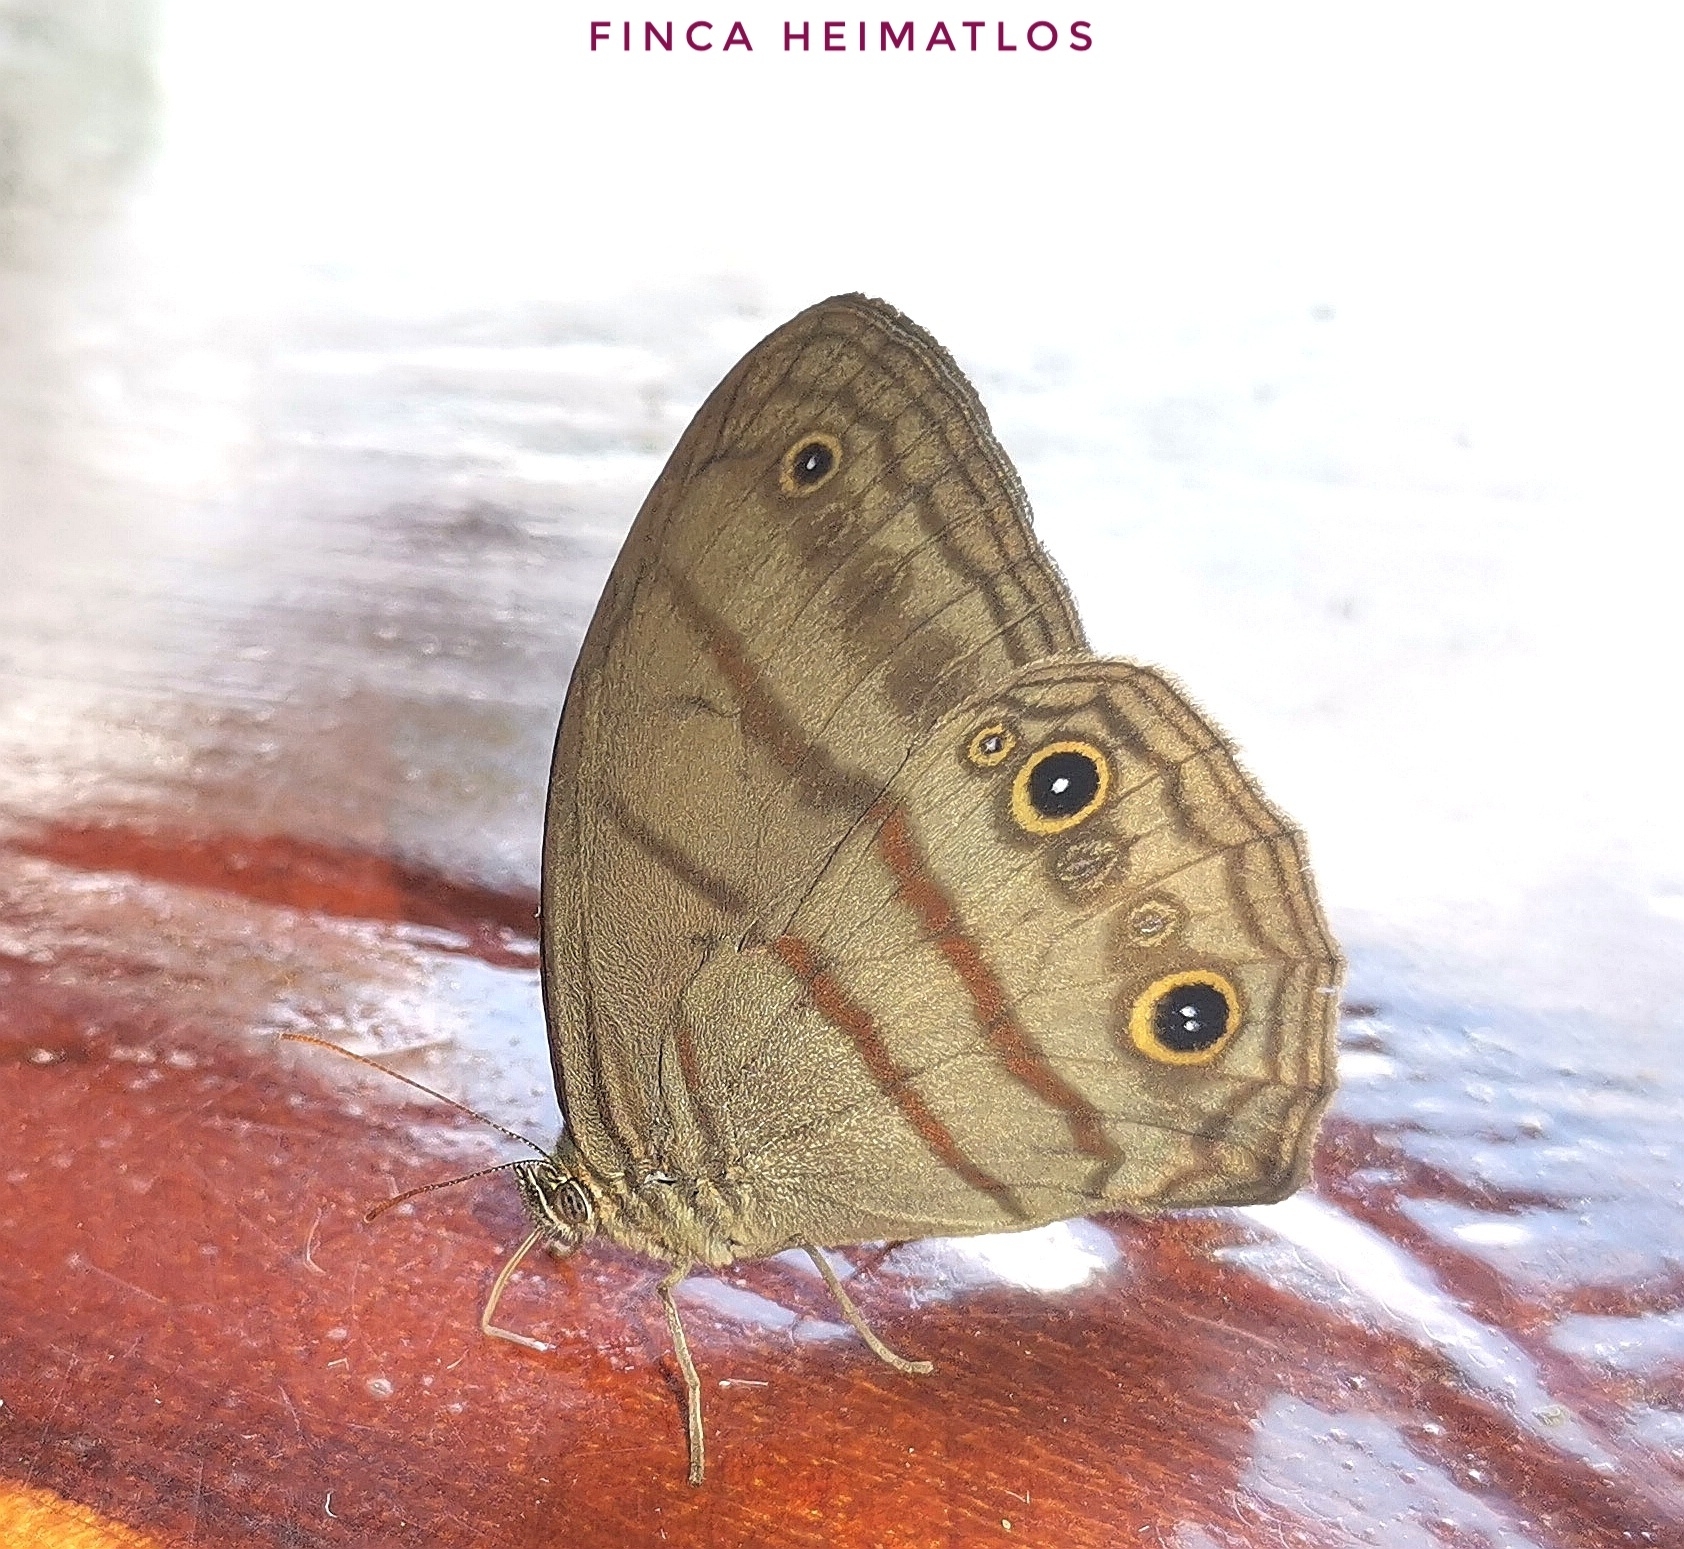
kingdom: Animalia
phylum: Arthropoda
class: Insecta
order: Lepidoptera
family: Nymphalidae
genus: Megeuptychia
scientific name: Megeuptychia antonoe
